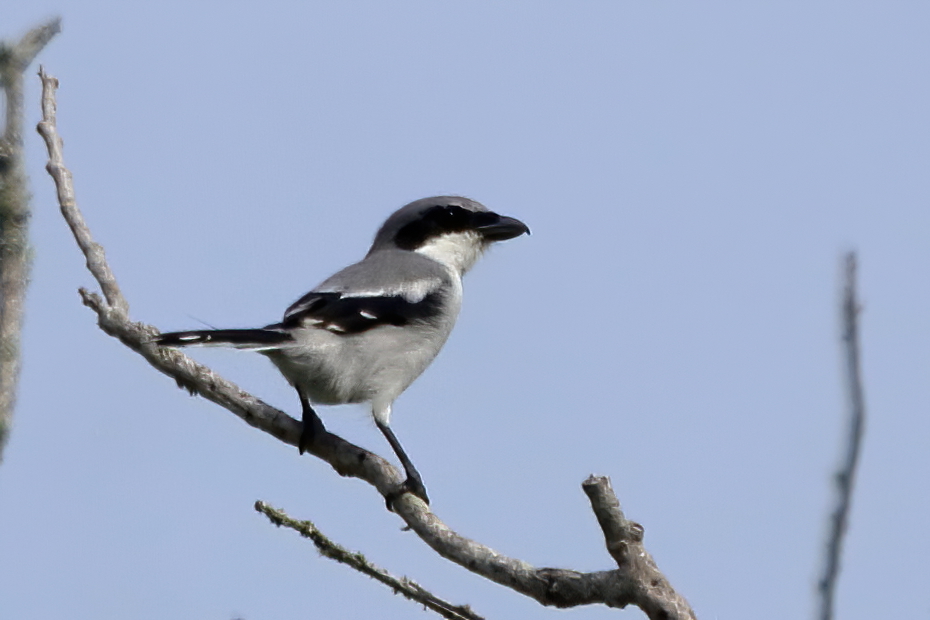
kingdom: Animalia
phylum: Chordata
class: Aves
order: Passeriformes
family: Laniidae
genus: Lanius
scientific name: Lanius ludovicianus
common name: Loggerhead shrike
